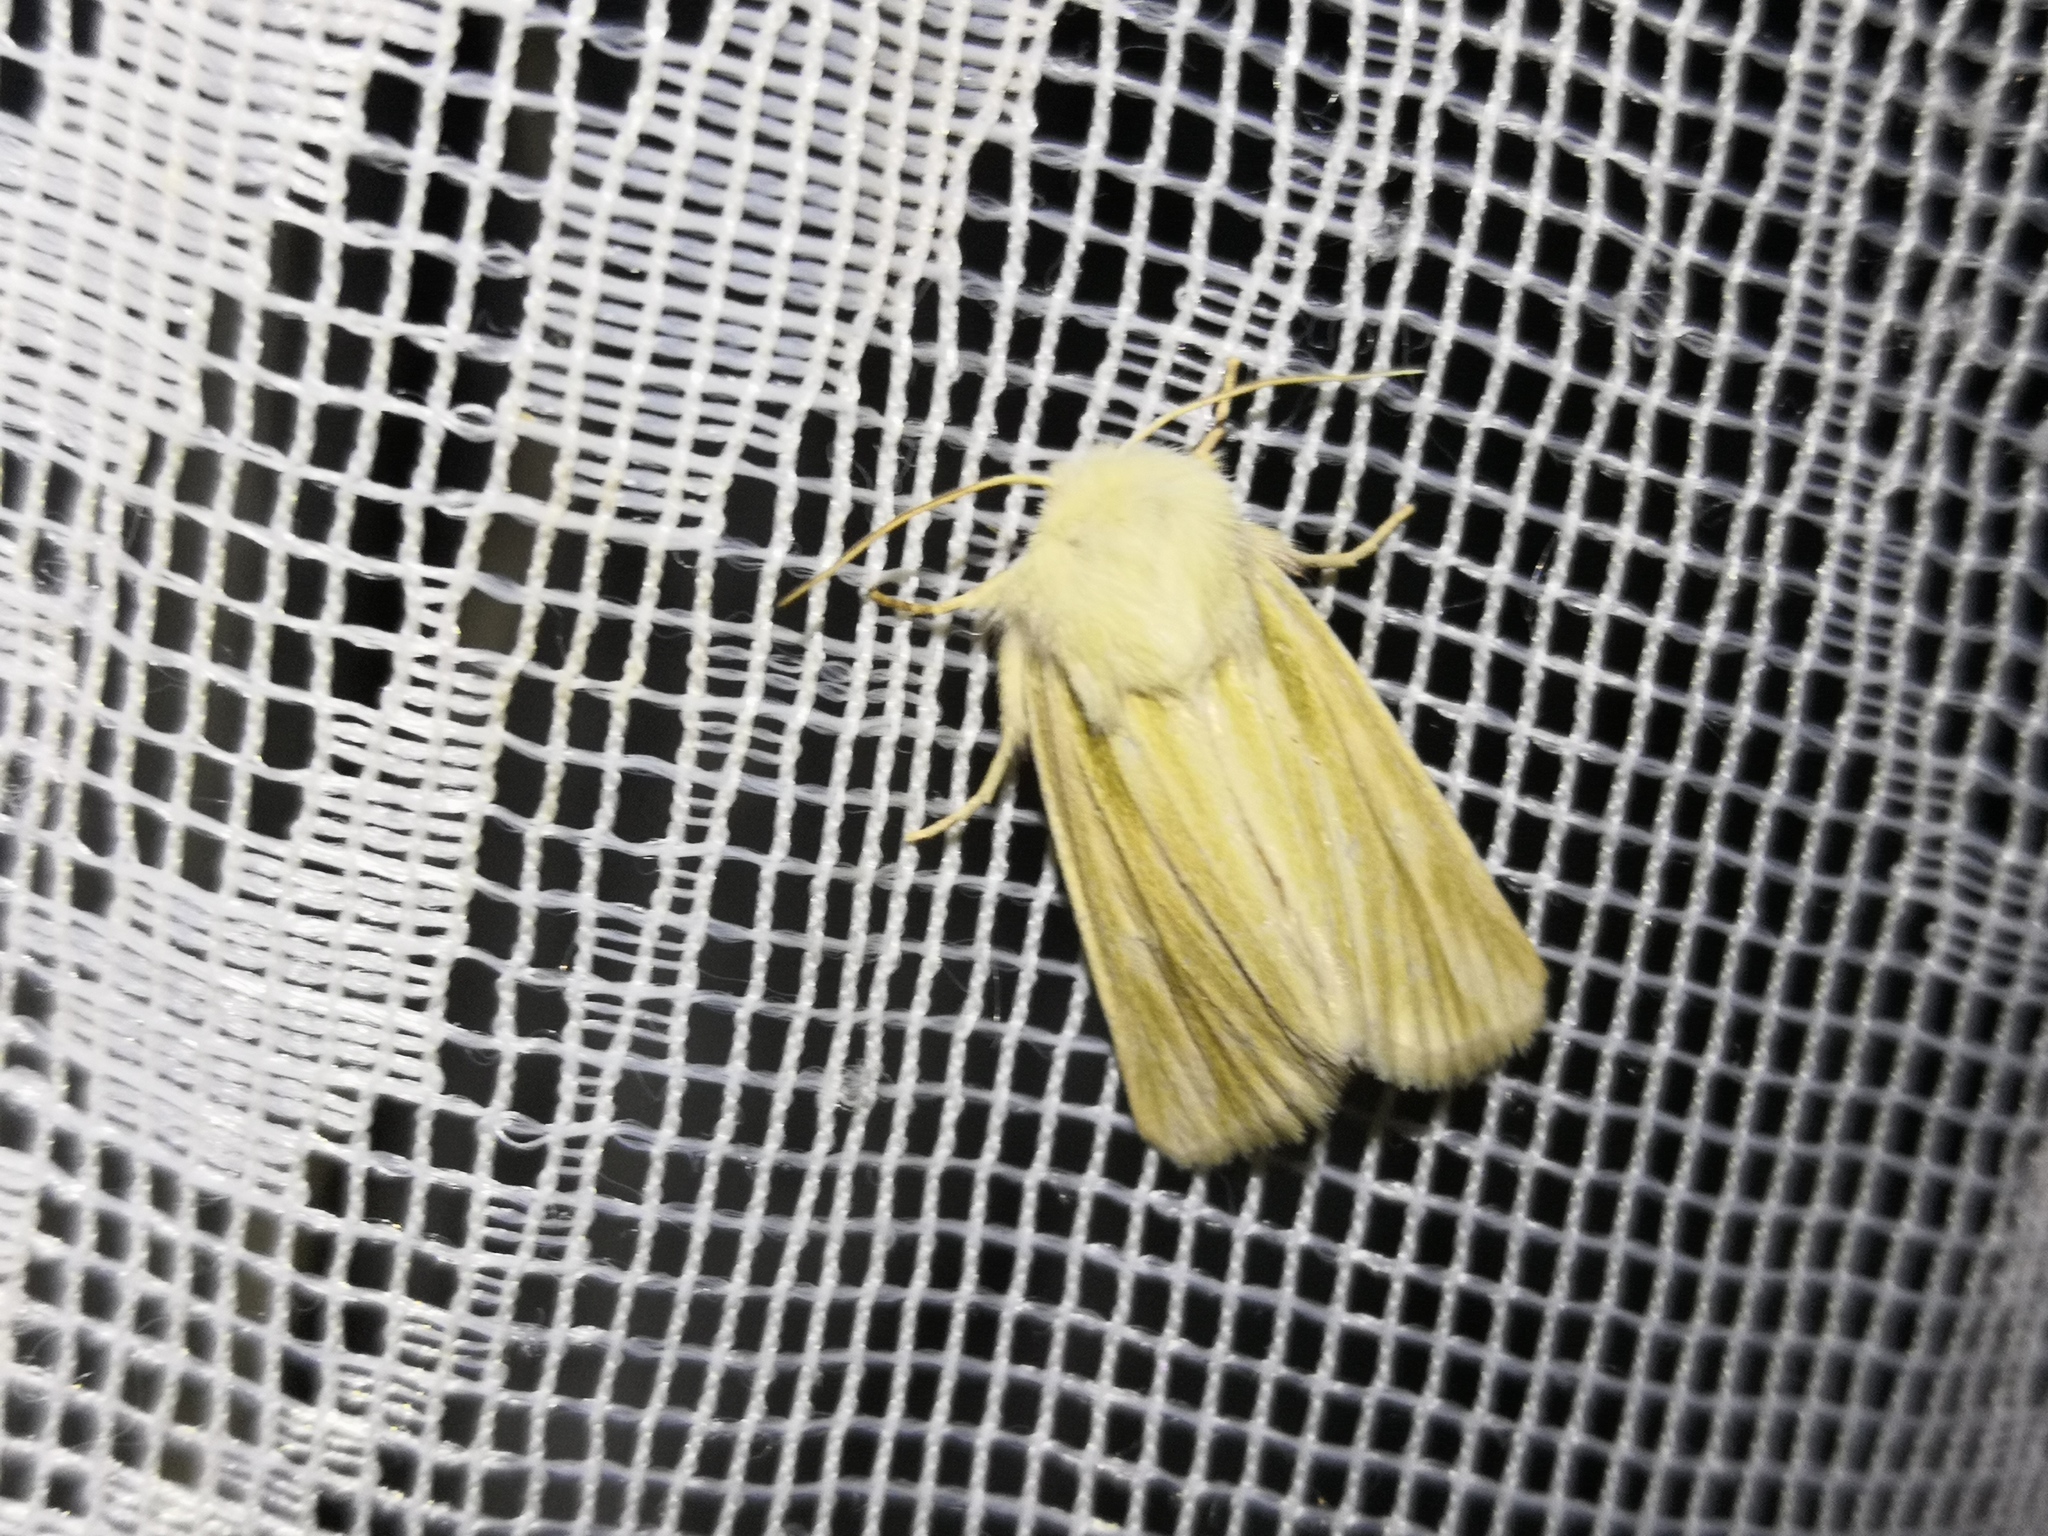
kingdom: Animalia
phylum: Arthropoda
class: Insecta
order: Lepidoptera
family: Noctuidae
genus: Oria
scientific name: Oria musculosa
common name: Brighton wainscot
